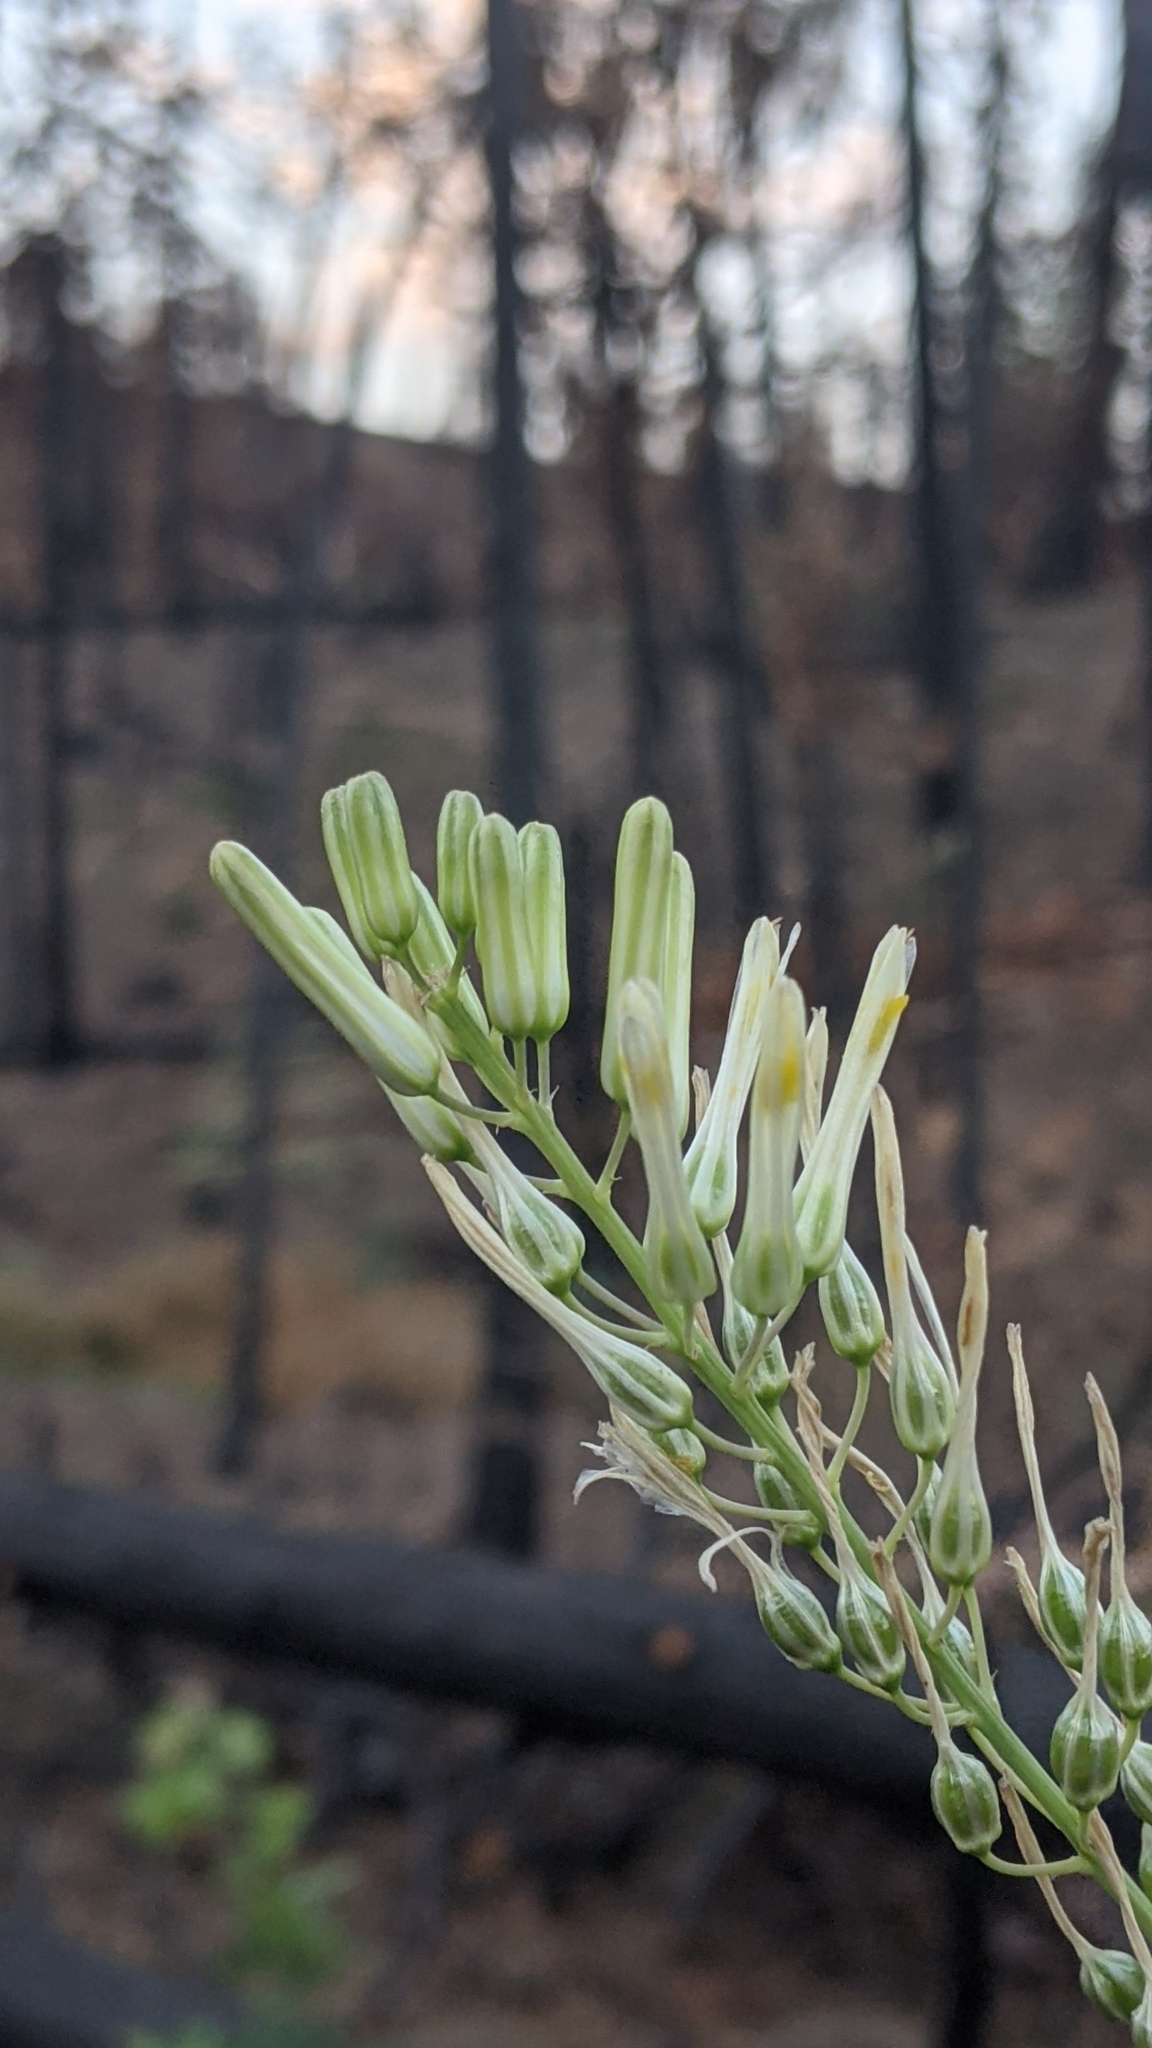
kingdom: Plantae
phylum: Tracheophyta
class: Liliopsida
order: Asparagales
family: Asparagaceae
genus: Chlorogalum
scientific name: Chlorogalum pomeridianum
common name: Amole
